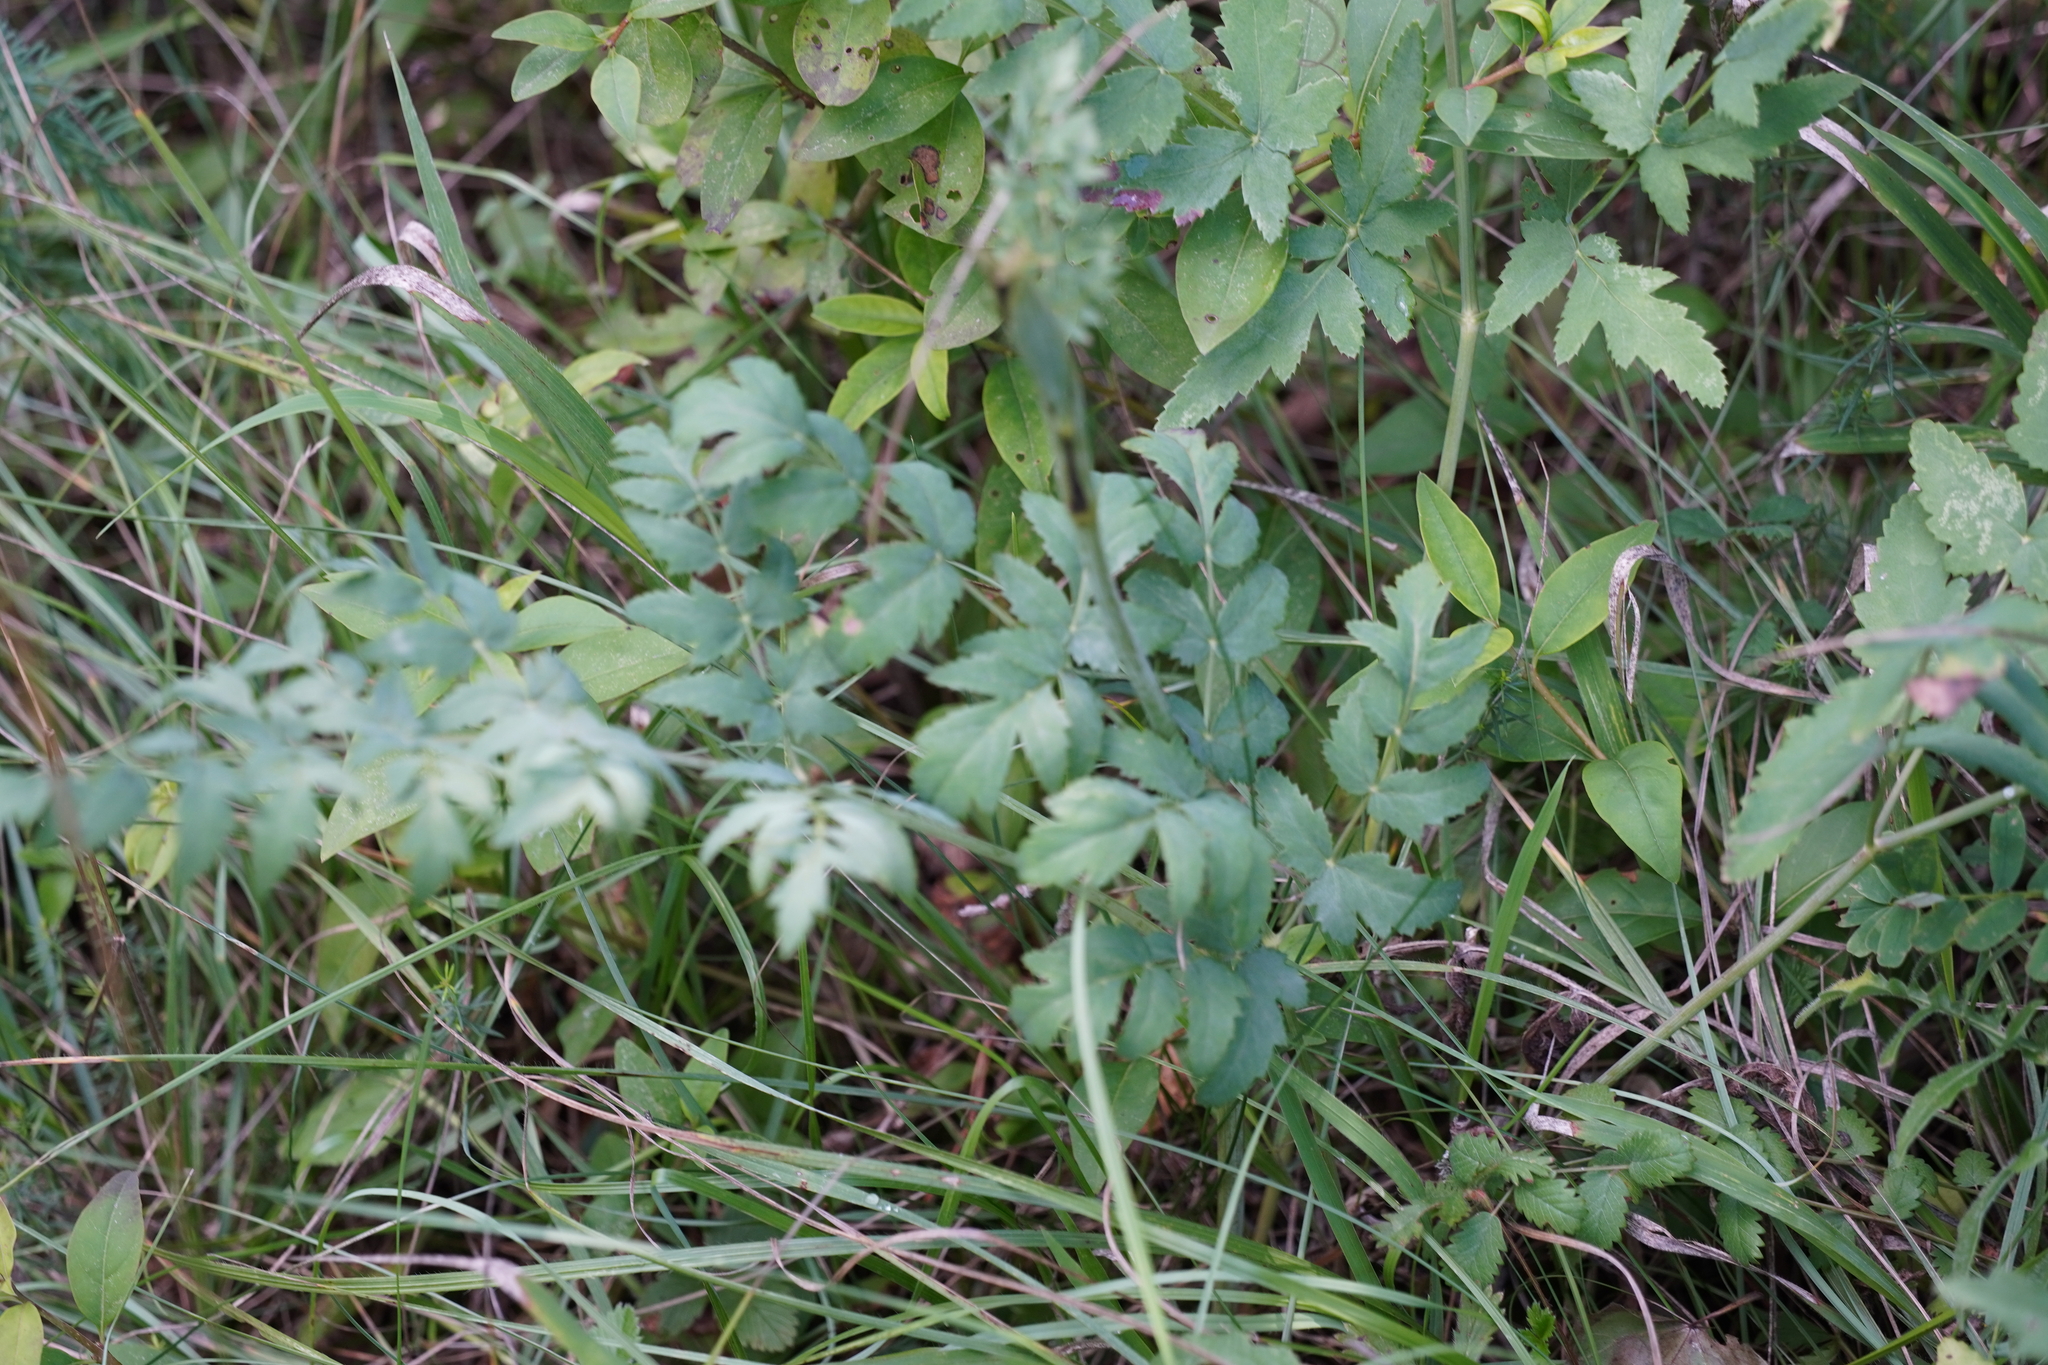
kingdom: Plantae
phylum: Tracheophyta
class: Magnoliopsida
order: Apiales
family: Apiaceae
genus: Cervaria
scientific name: Cervaria rivini
